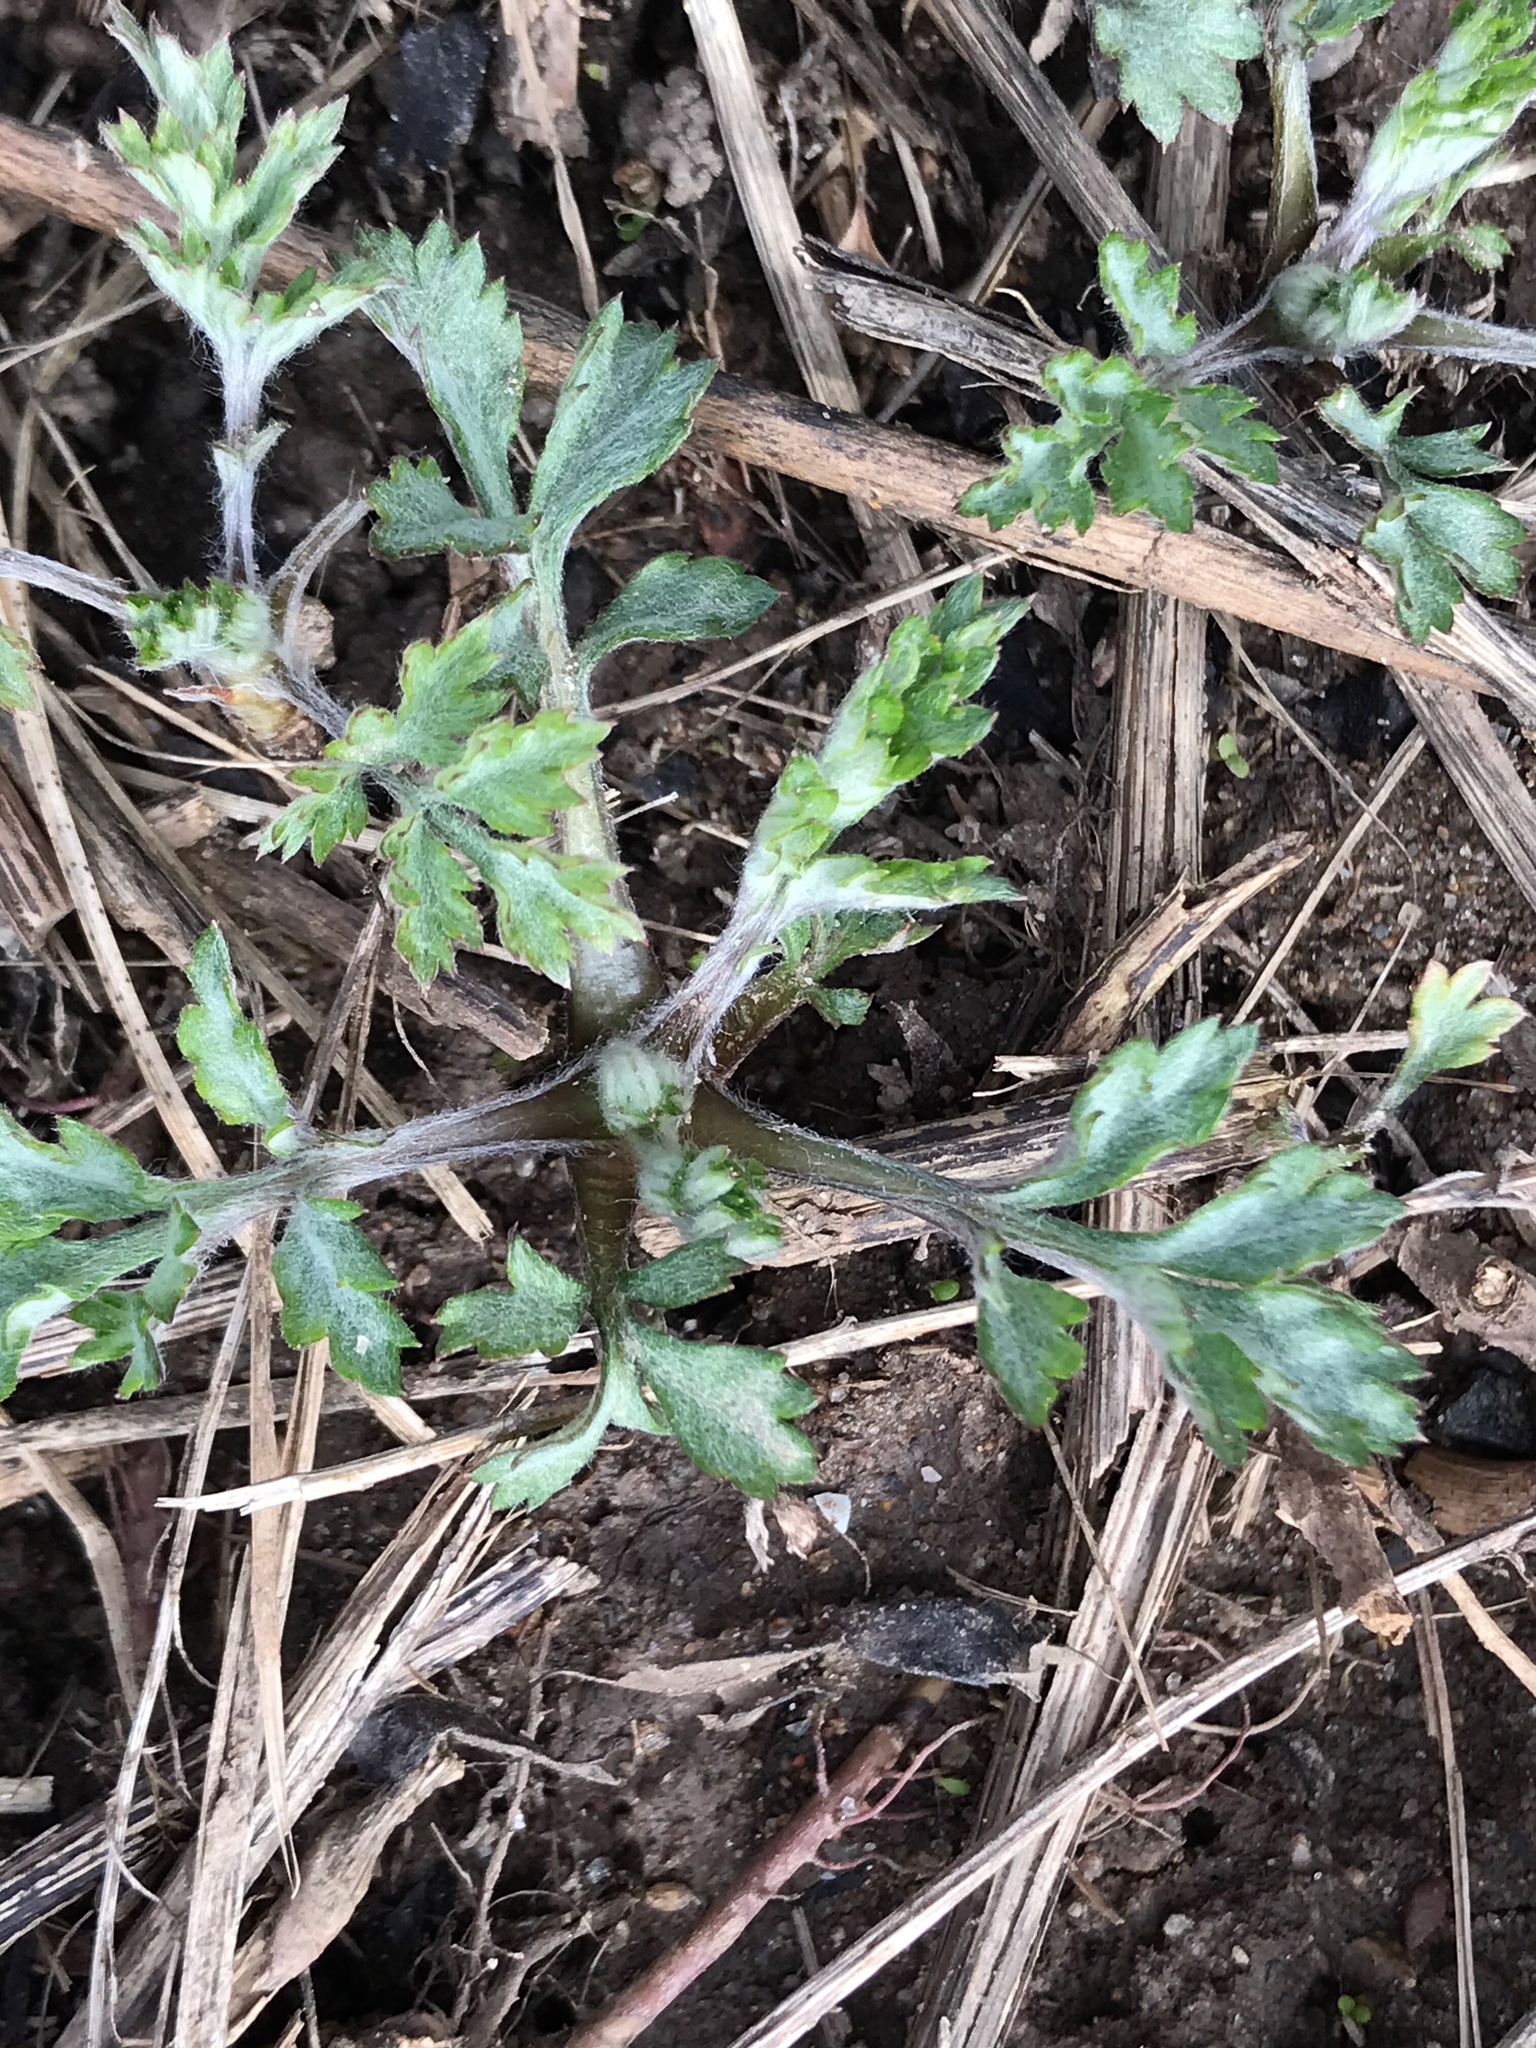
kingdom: Plantae
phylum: Tracheophyta
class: Magnoliopsida
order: Asterales
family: Asteraceae
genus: Artemisia
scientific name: Artemisia vulgaris
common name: Mugwort
